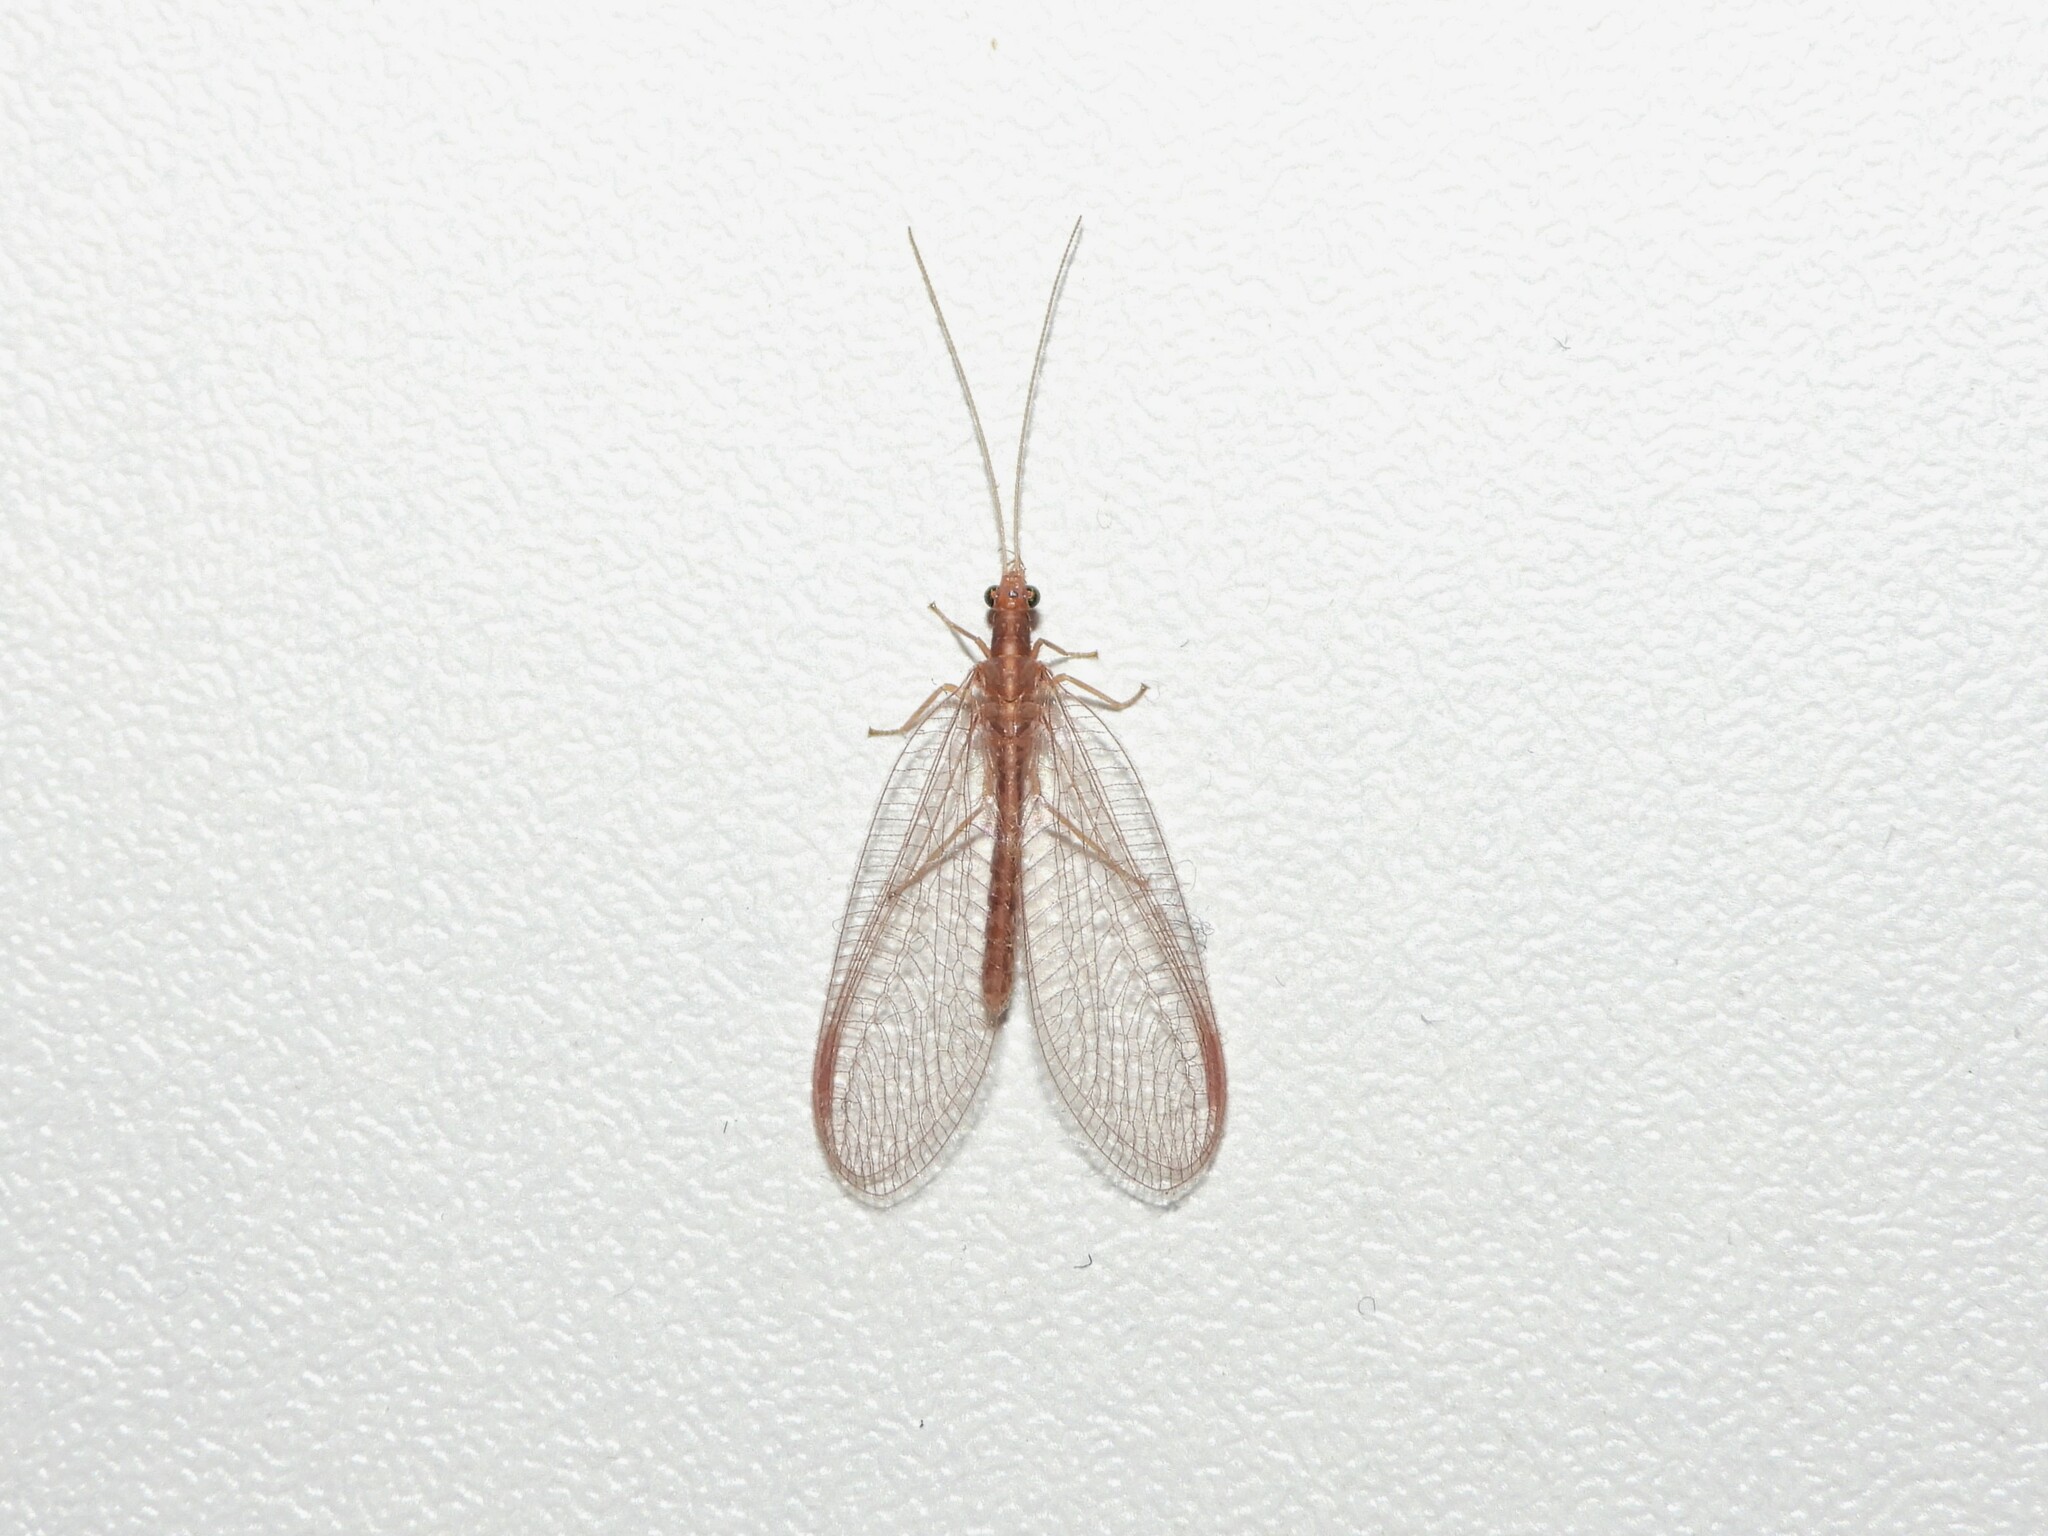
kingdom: Animalia
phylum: Arthropoda
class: Insecta
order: Neuroptera
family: Chrysopidae
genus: Chrysoperla
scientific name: Chrysoperla
